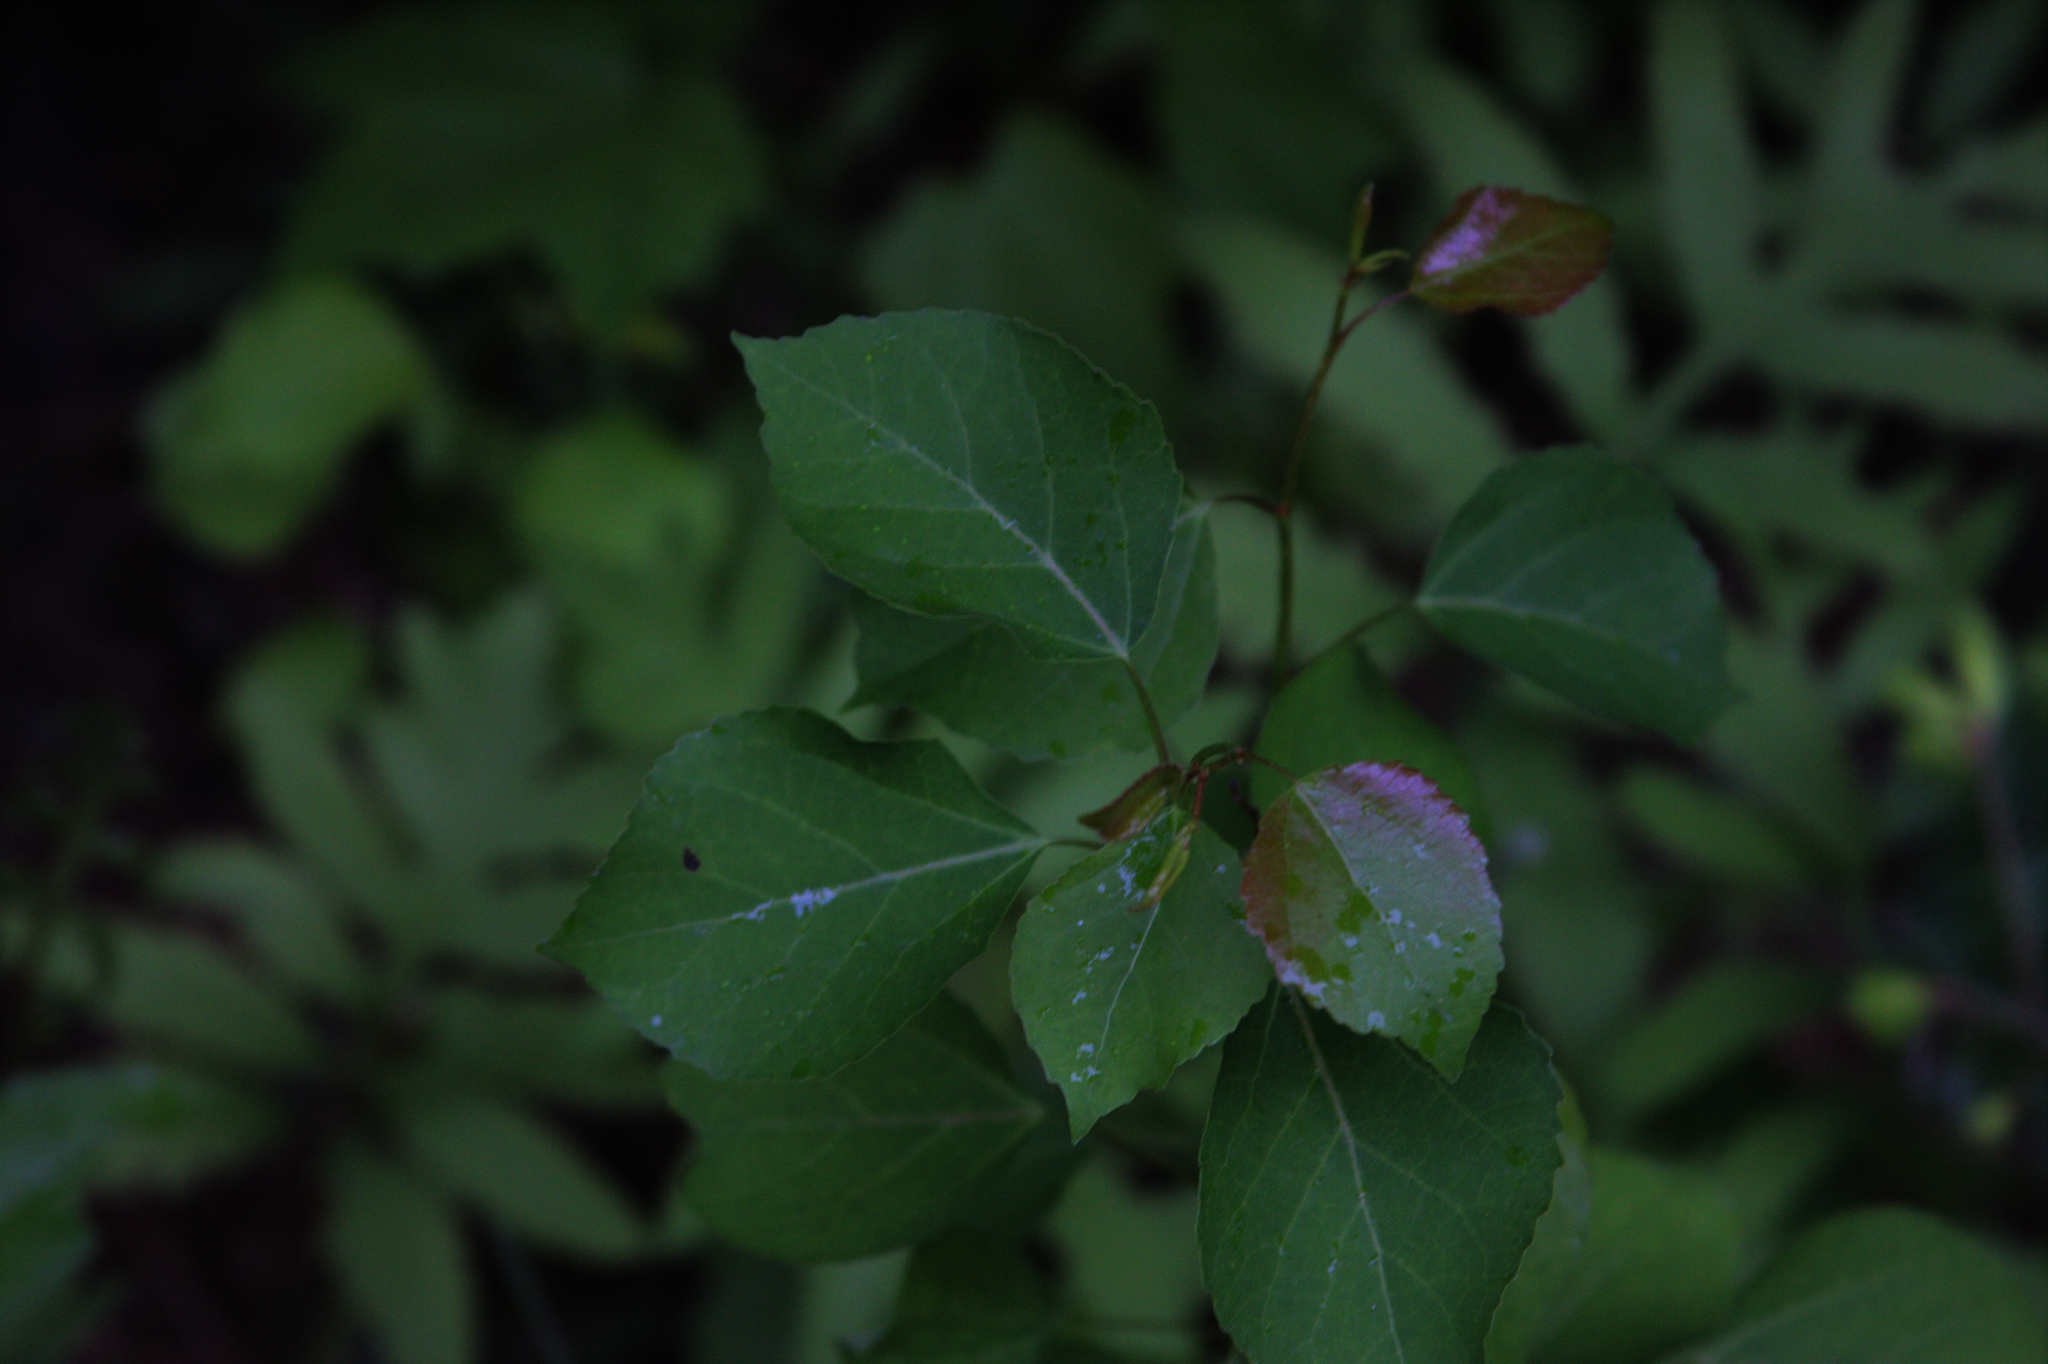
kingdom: Plantae
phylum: Tracheophyta
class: Magnoliopsida
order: Malpighiales
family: Salicaceae
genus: Populus
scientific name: Populus tremuloides
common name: Quaking aspen
